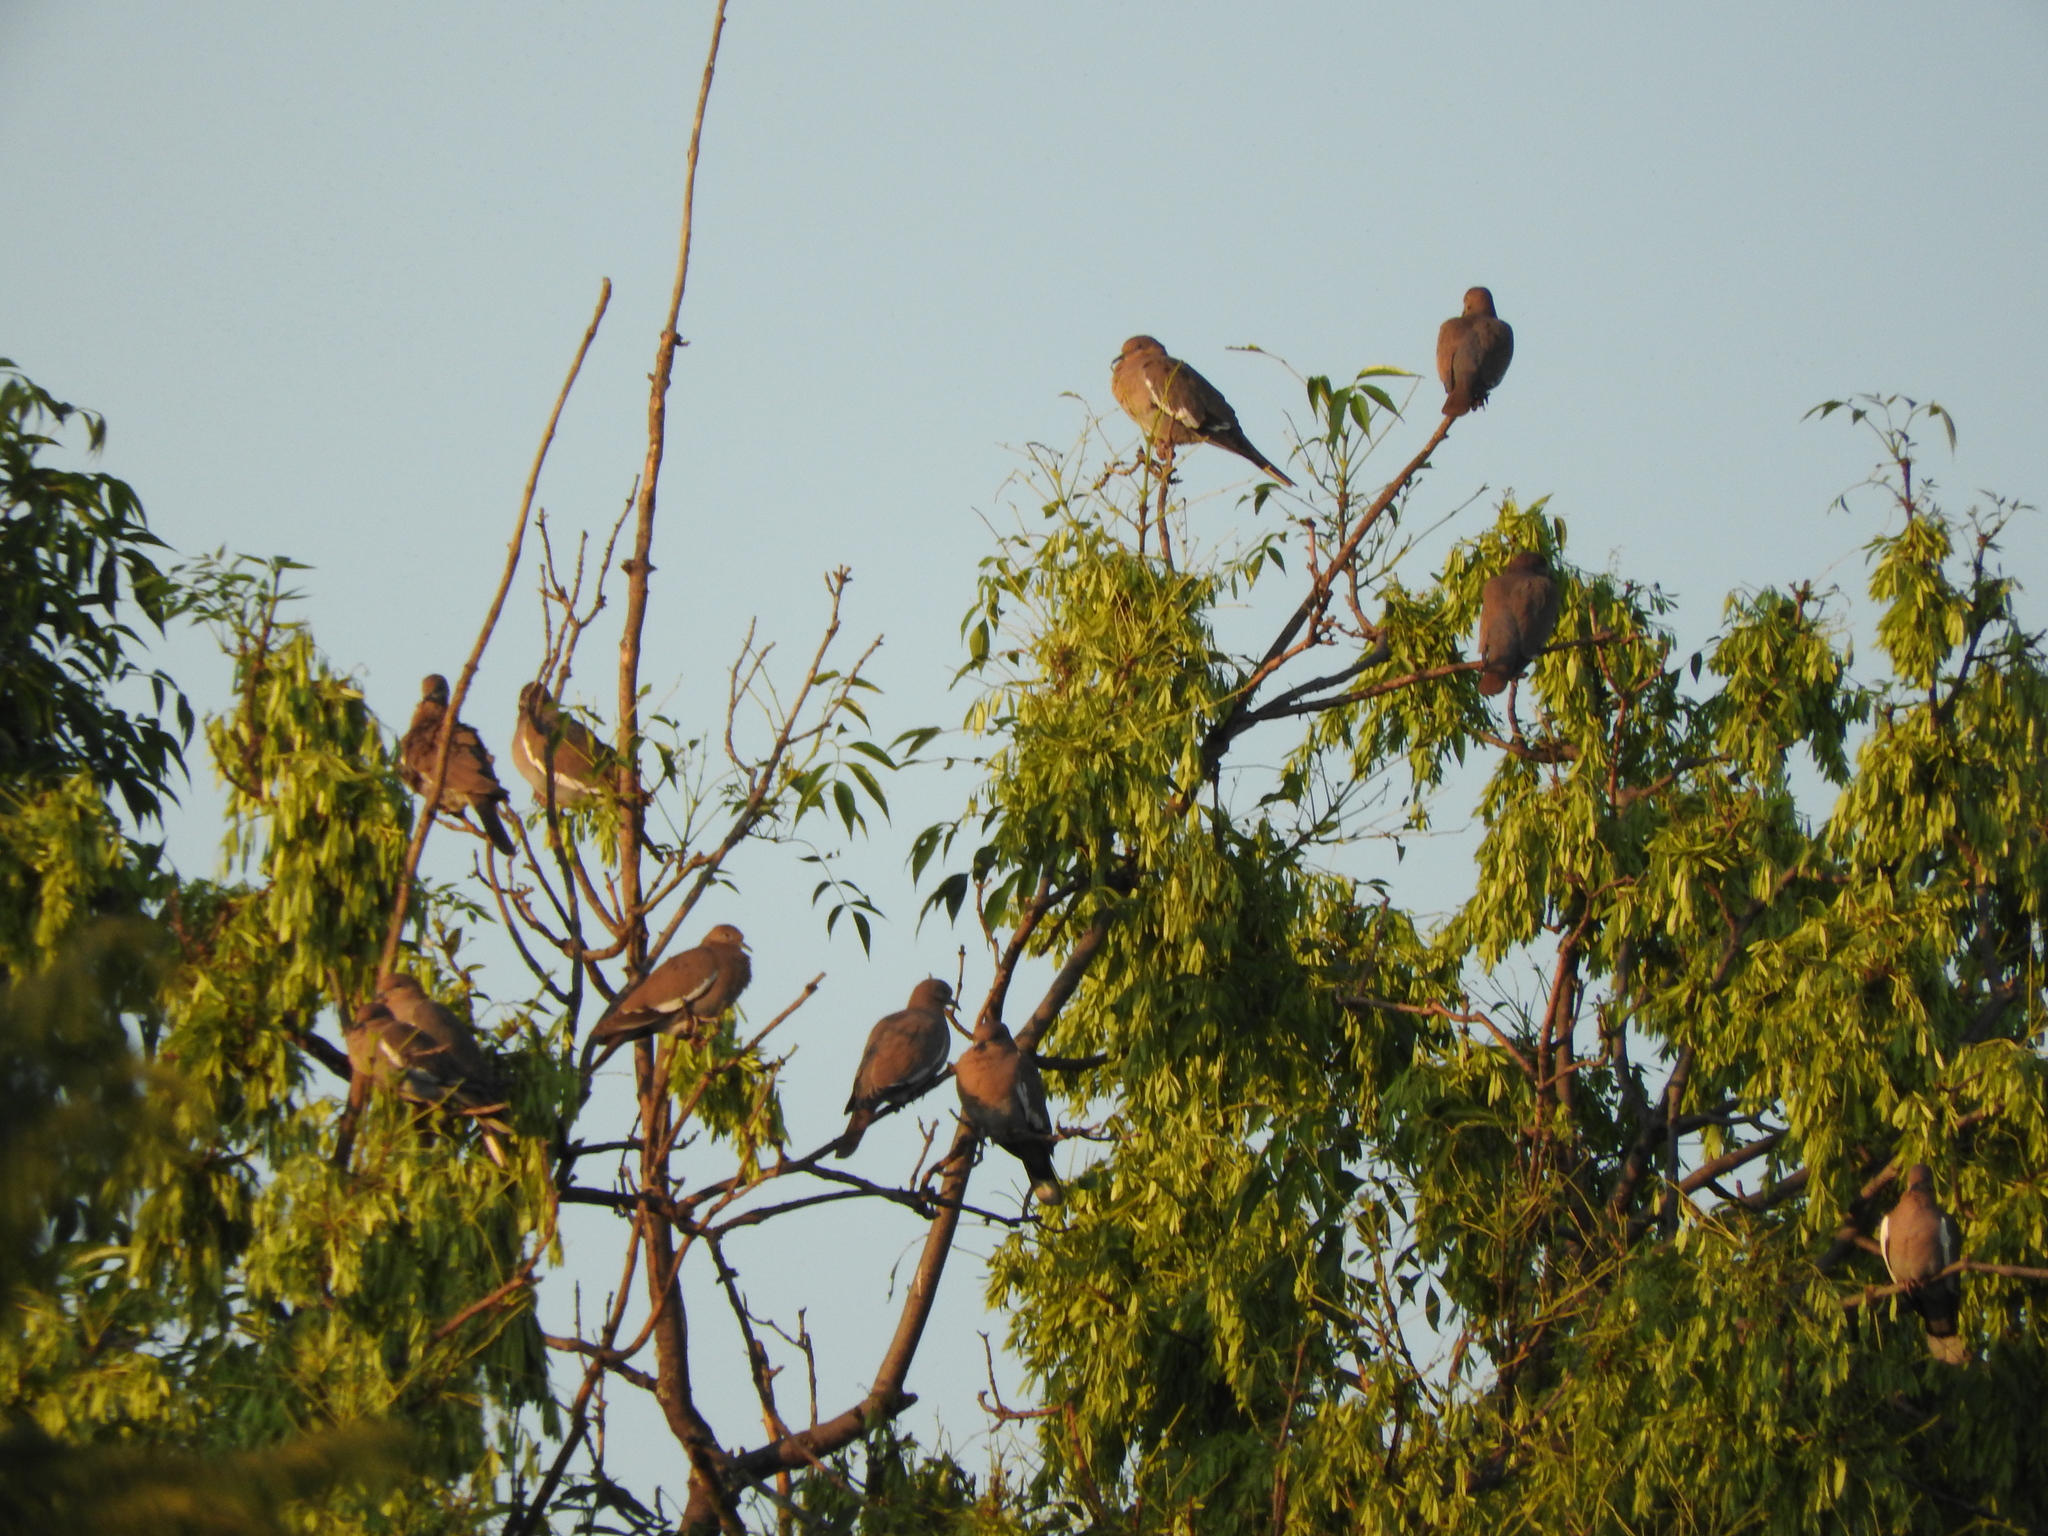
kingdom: Animalia
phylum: Chordata
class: Aves
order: Columbiformes
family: Columbidae
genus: Zenaida
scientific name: Zenaida asiatica
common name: White-winged dove
